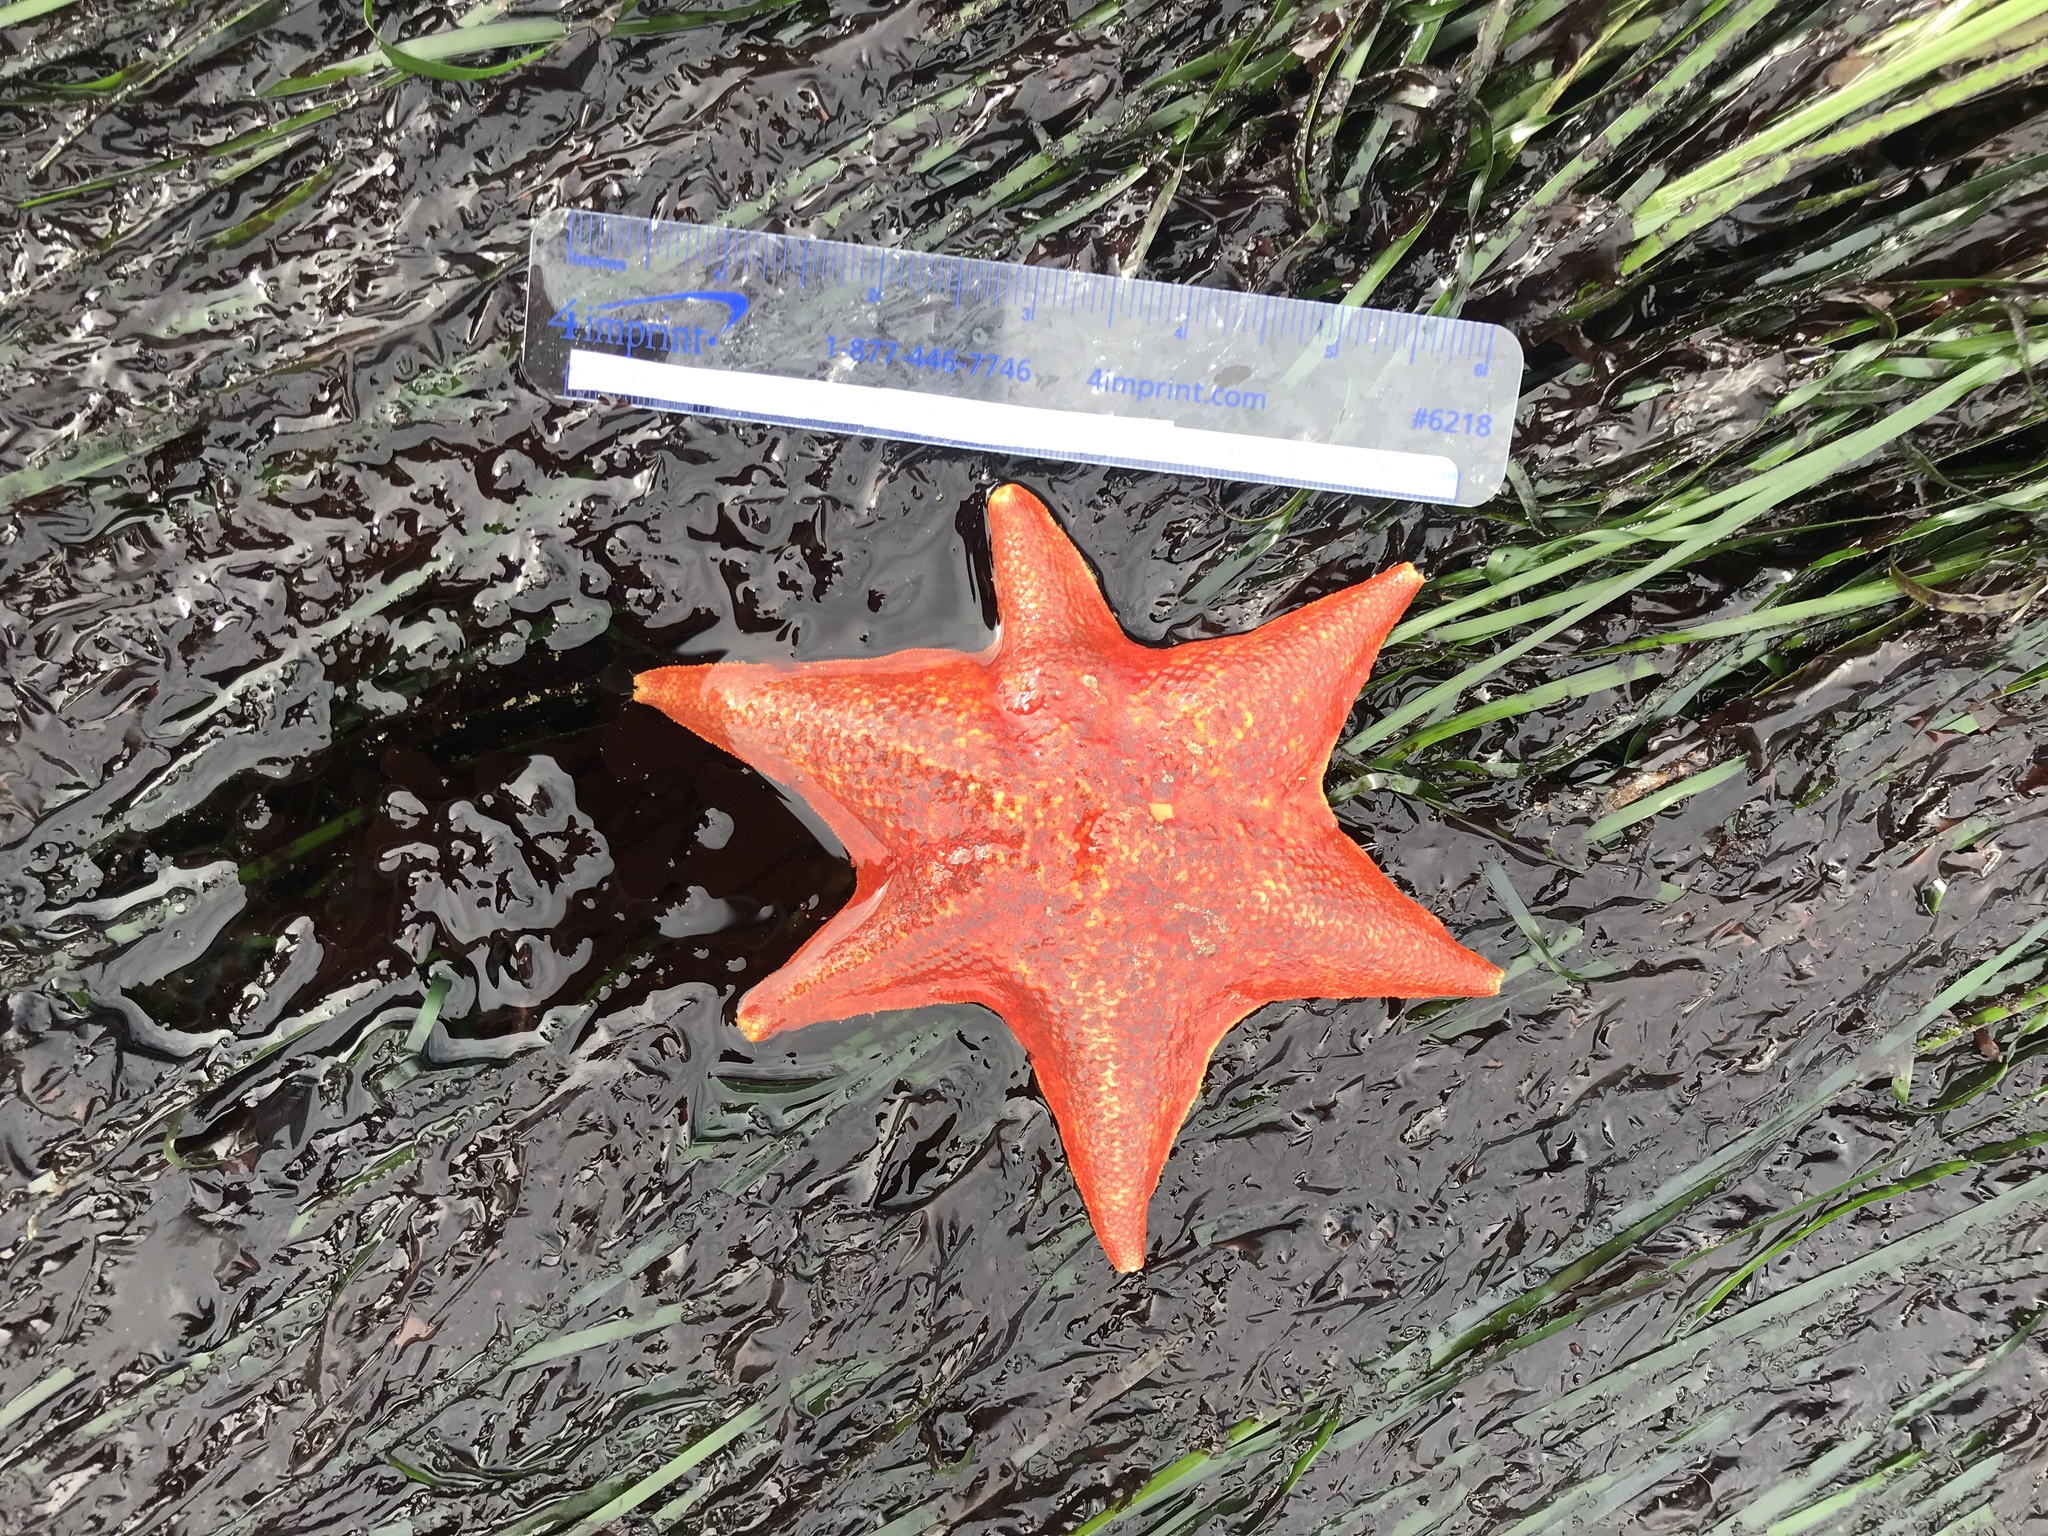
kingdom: Animalia
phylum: Echinodermata
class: Asteroidea
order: Valvatida
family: Asterinidae
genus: Patiria
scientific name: Patiria miniata
